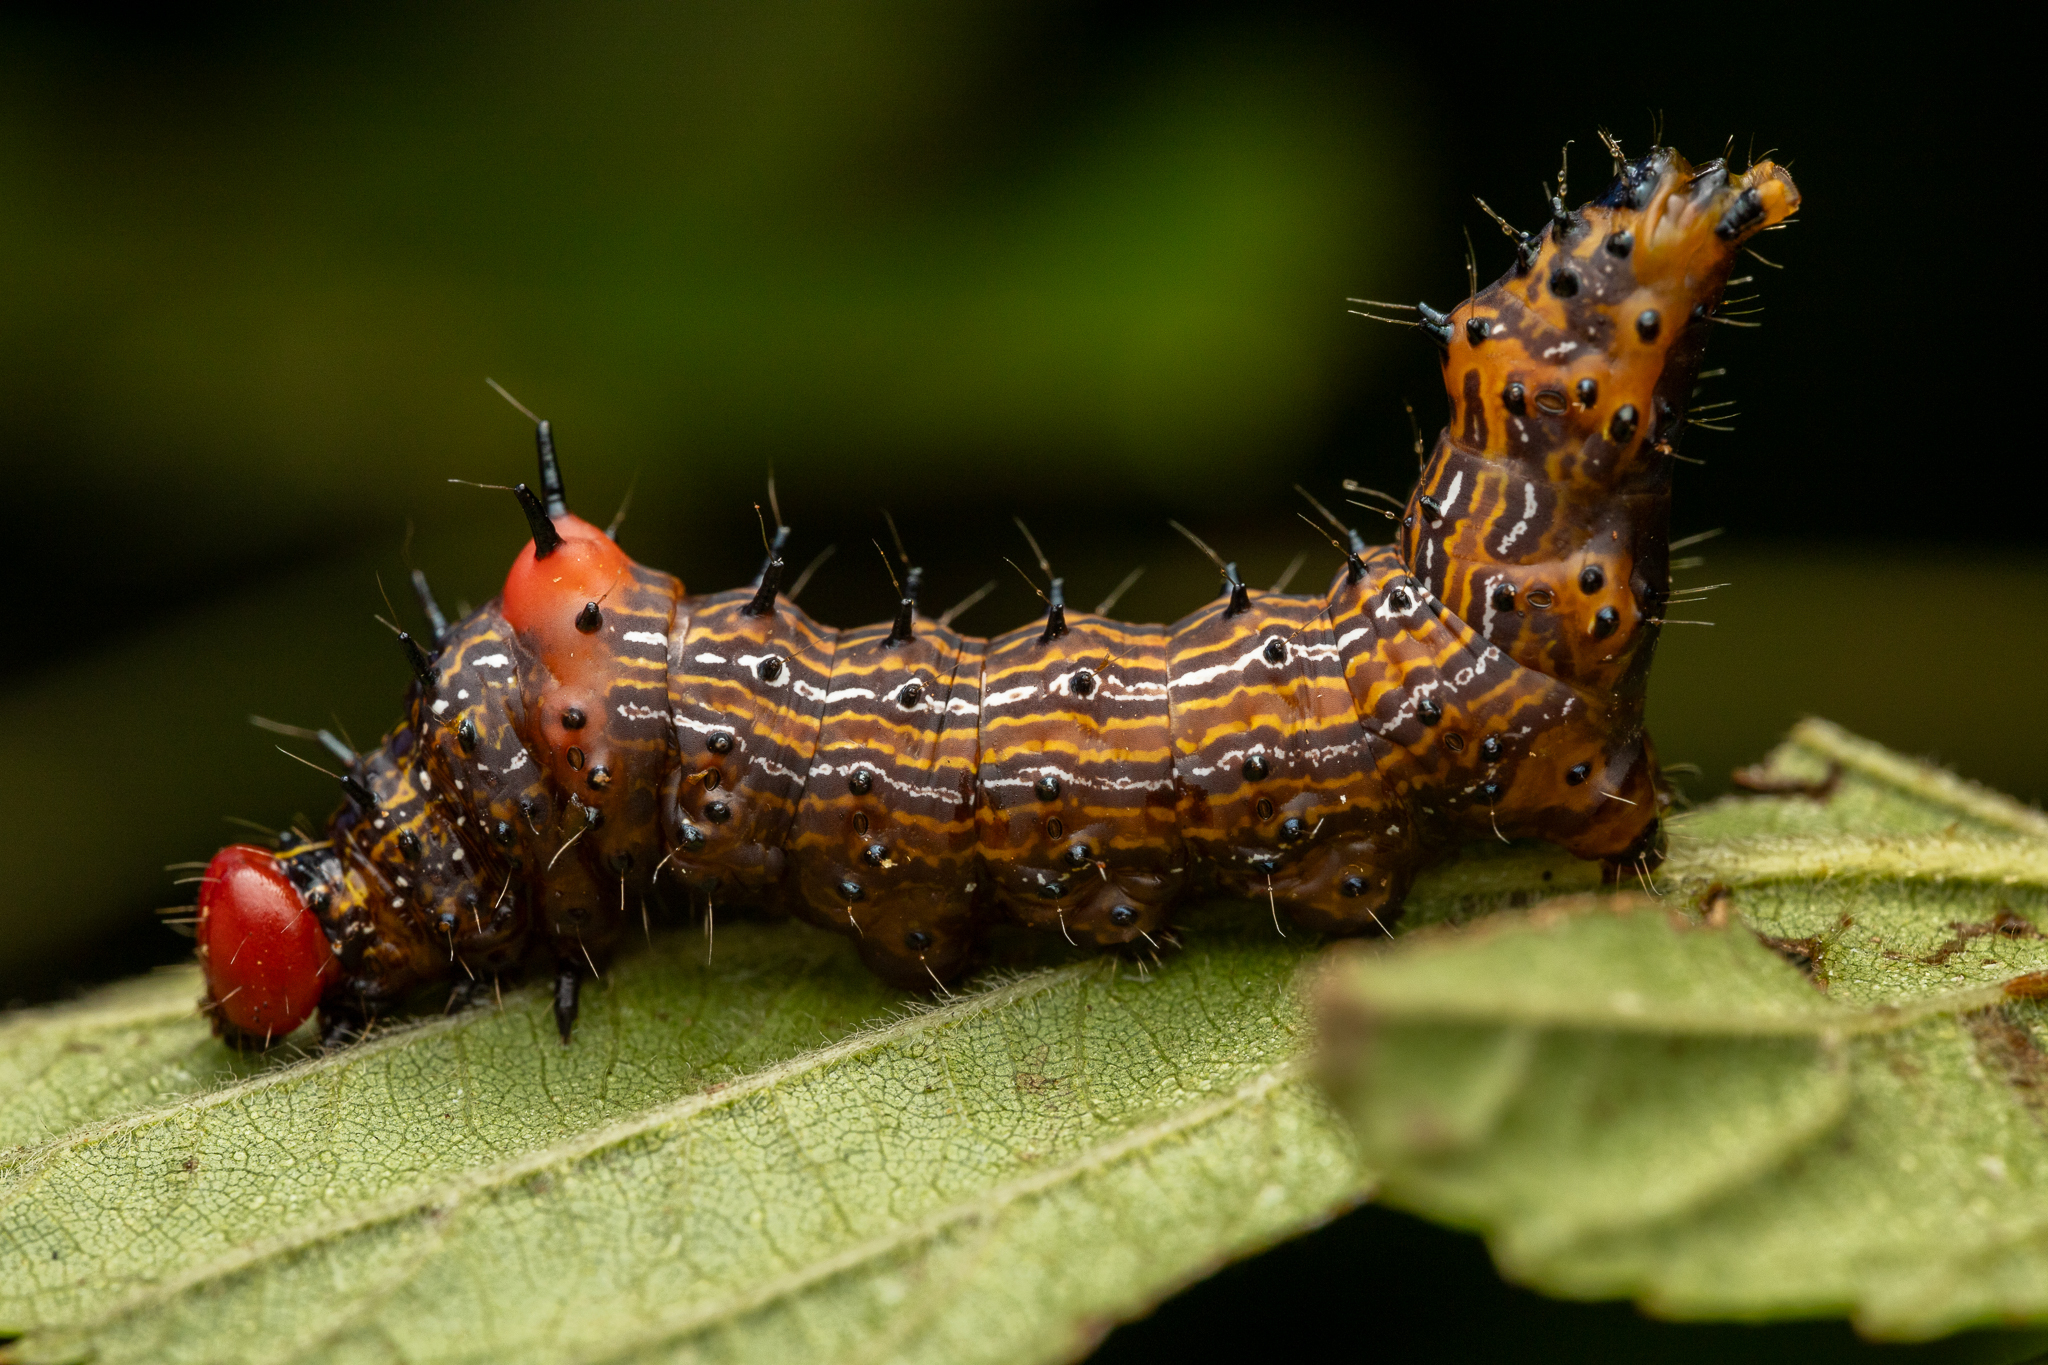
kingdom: Animalia
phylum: Arthropoda
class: Insecta
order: Lepidoptera
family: Notodontidae
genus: Schizura
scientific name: Schizura
